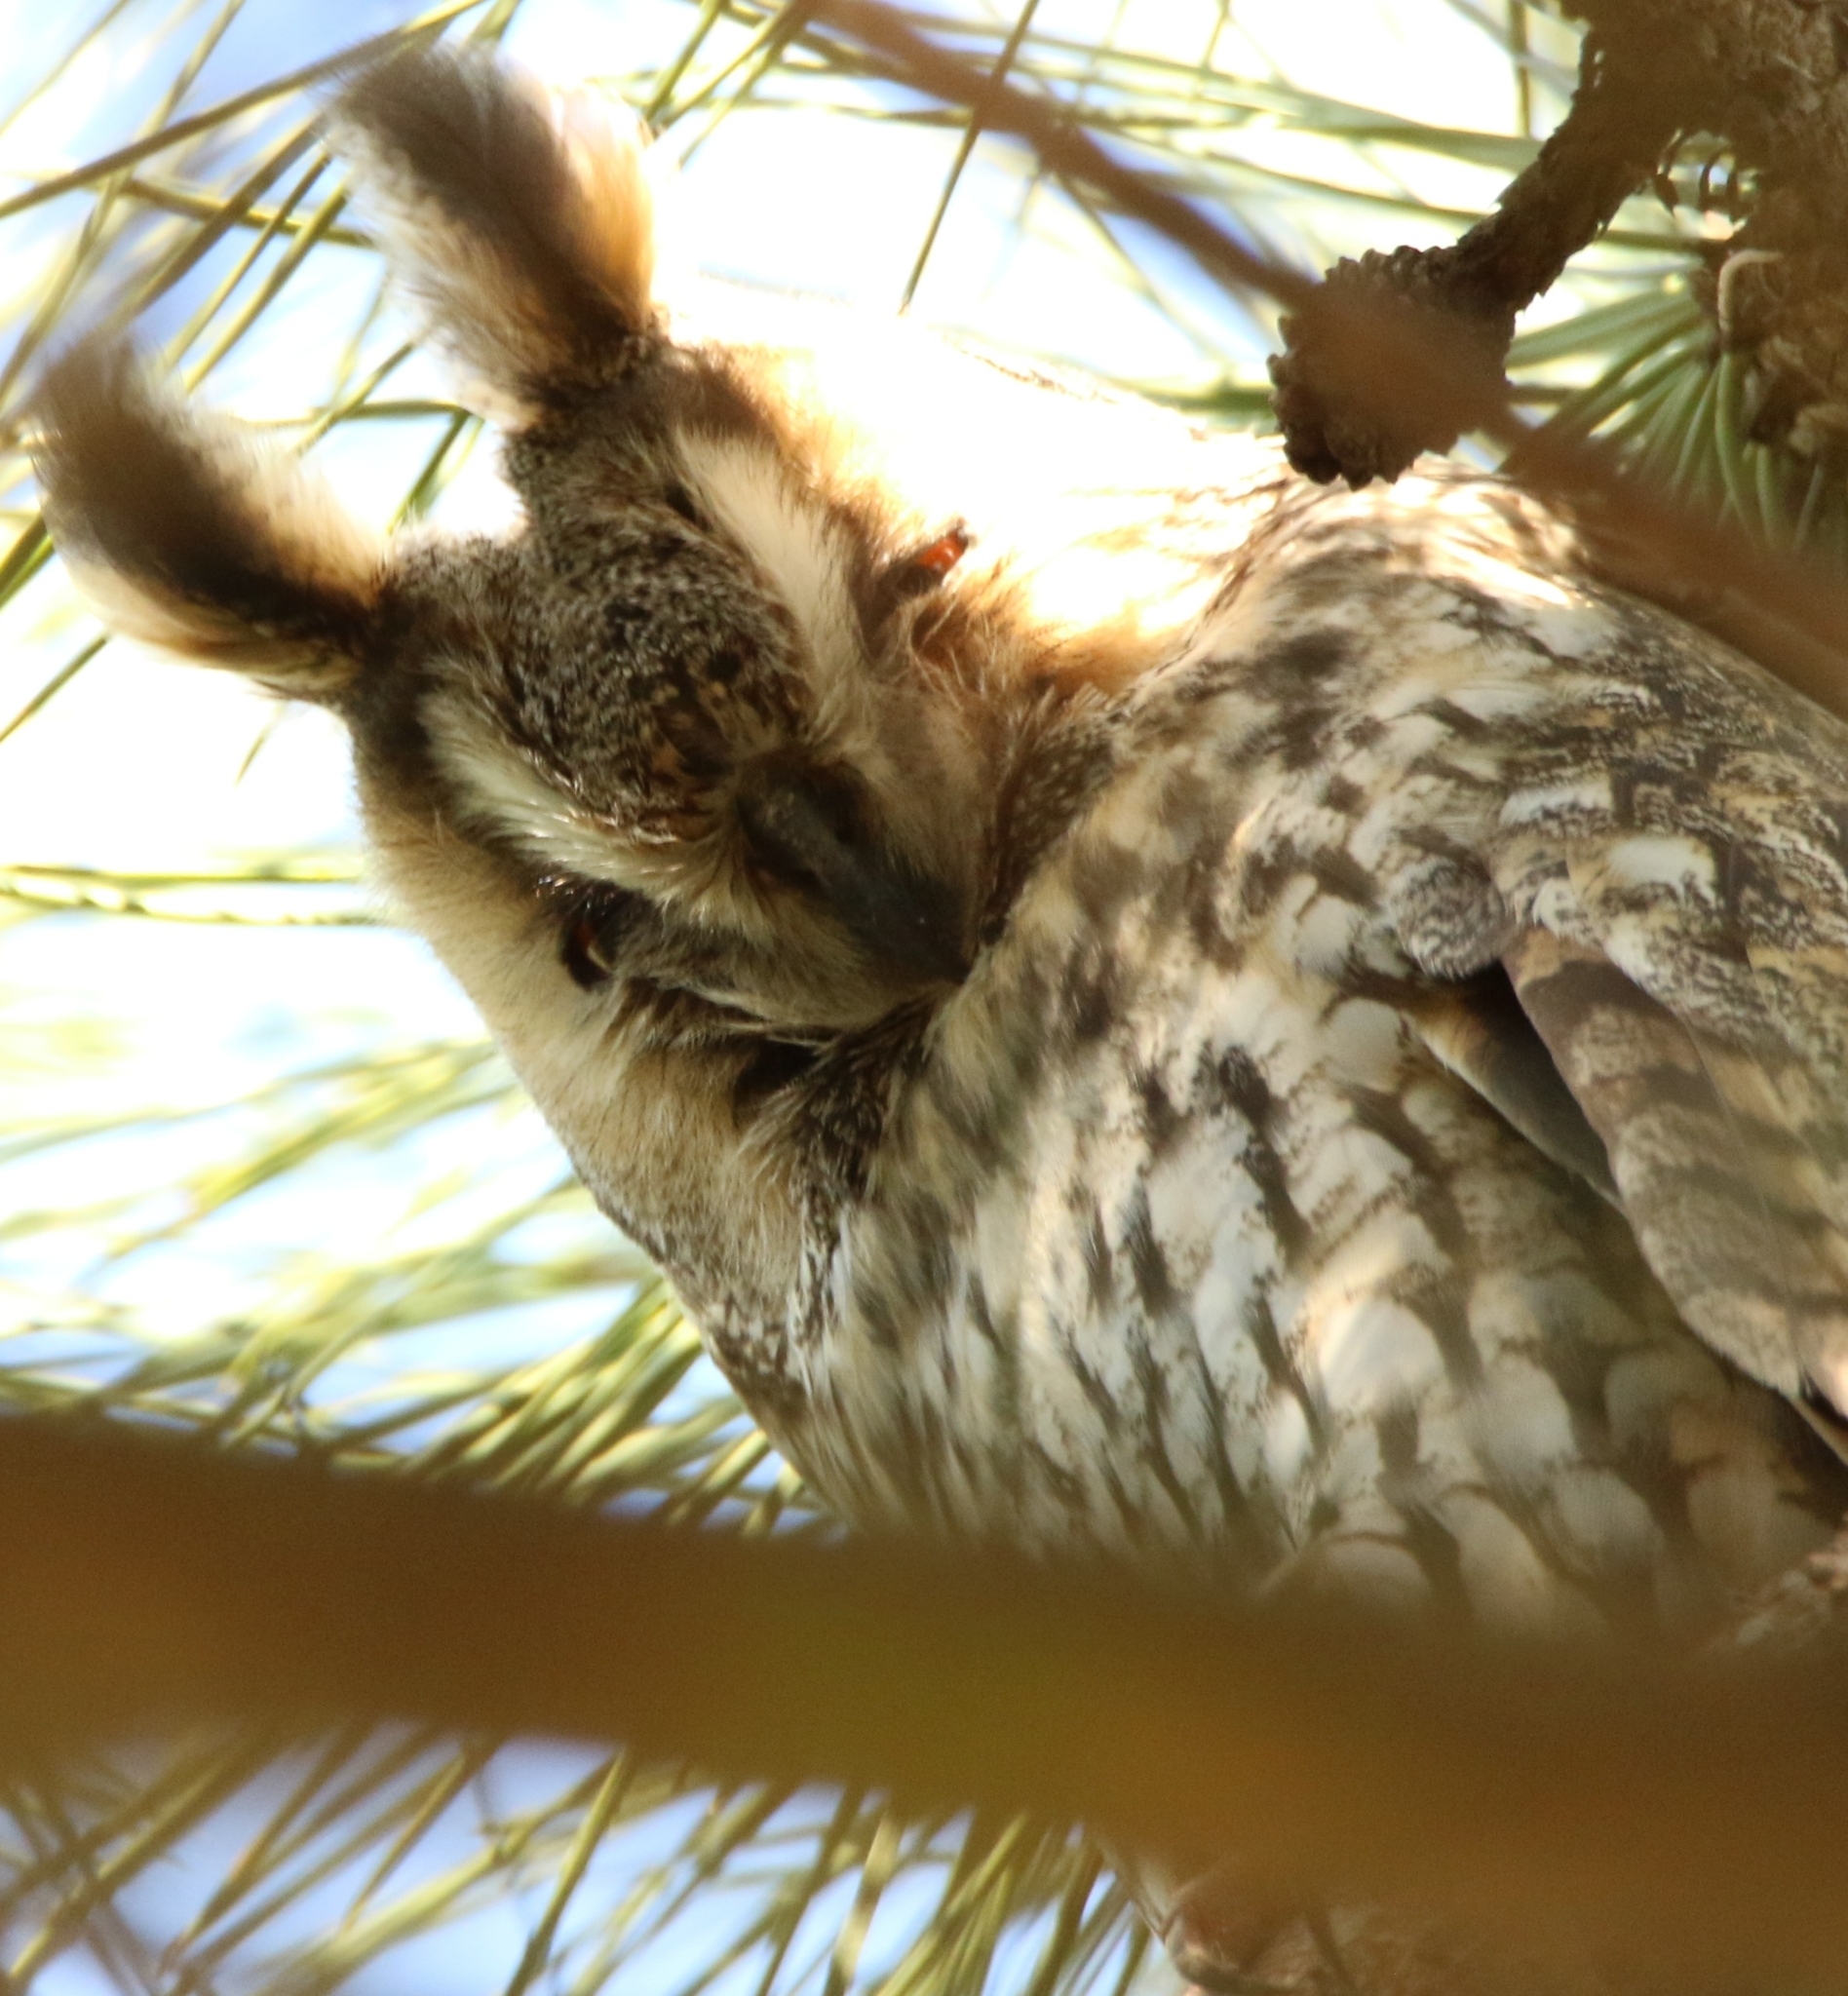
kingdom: Animalia
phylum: Chordata
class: Aves
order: Strigiformes
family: Strigidae
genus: Asio
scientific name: Asio otus
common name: Long-eared owl
